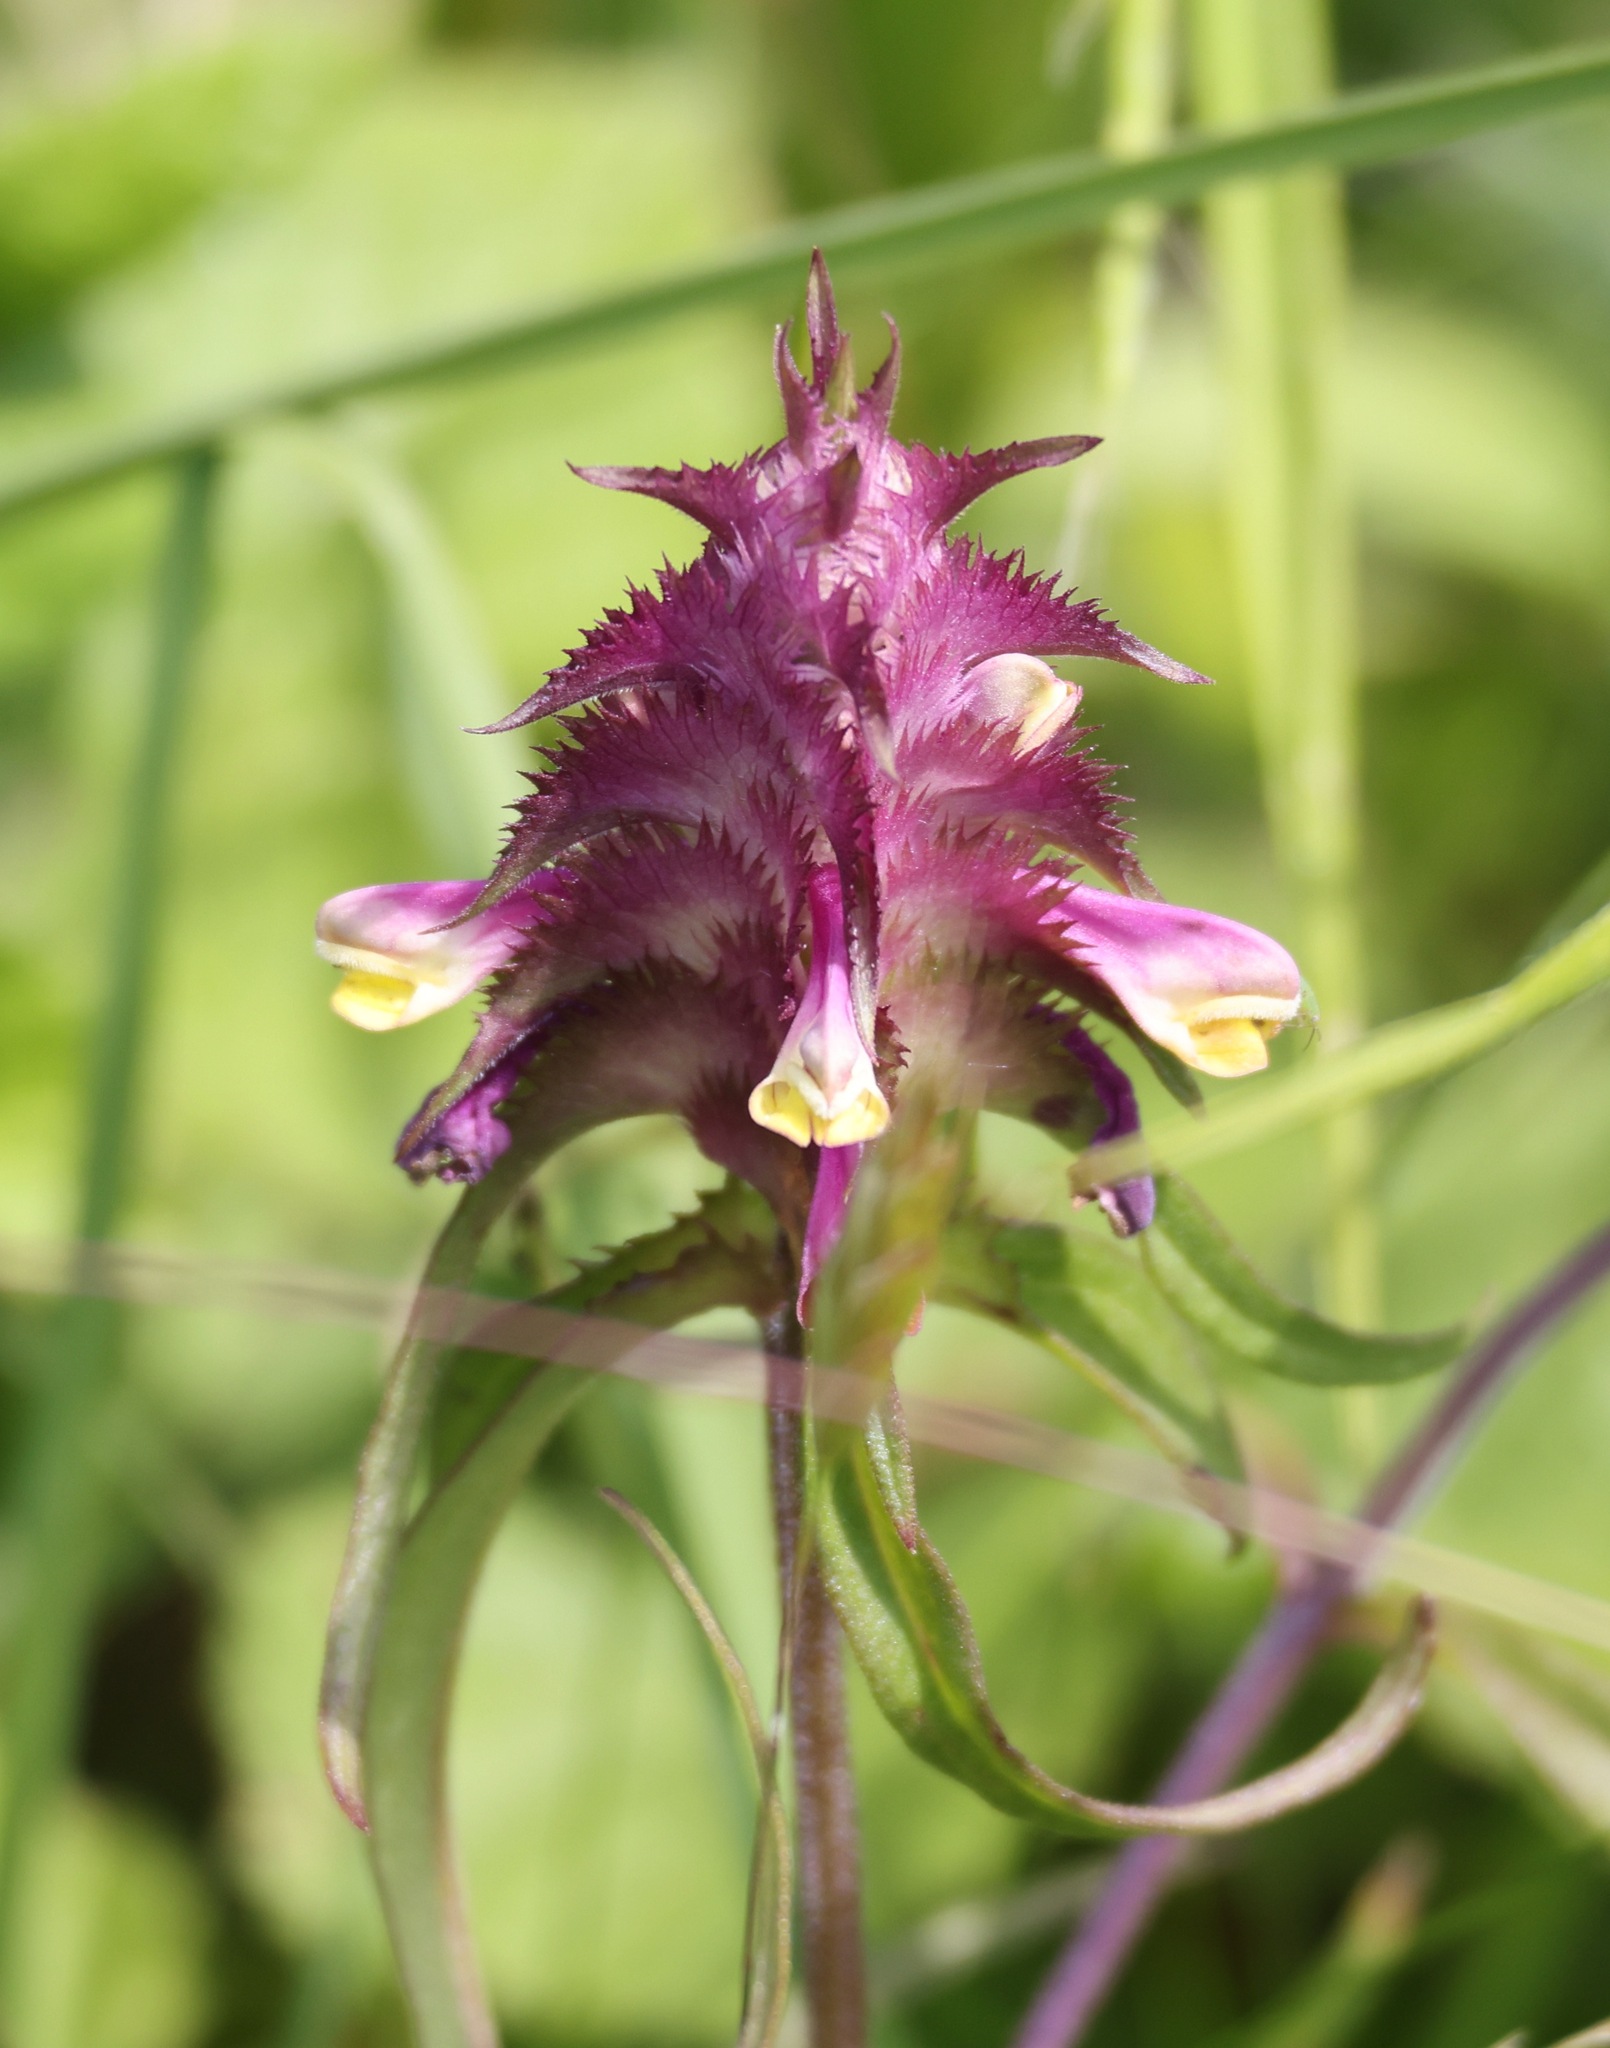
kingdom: Plantae
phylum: Tracheophyta
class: Magnoliopsida
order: Lamiales
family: Orobanchaceae
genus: Melampyrum
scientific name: Melampyrum cristatum
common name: Crested cow-wheat
